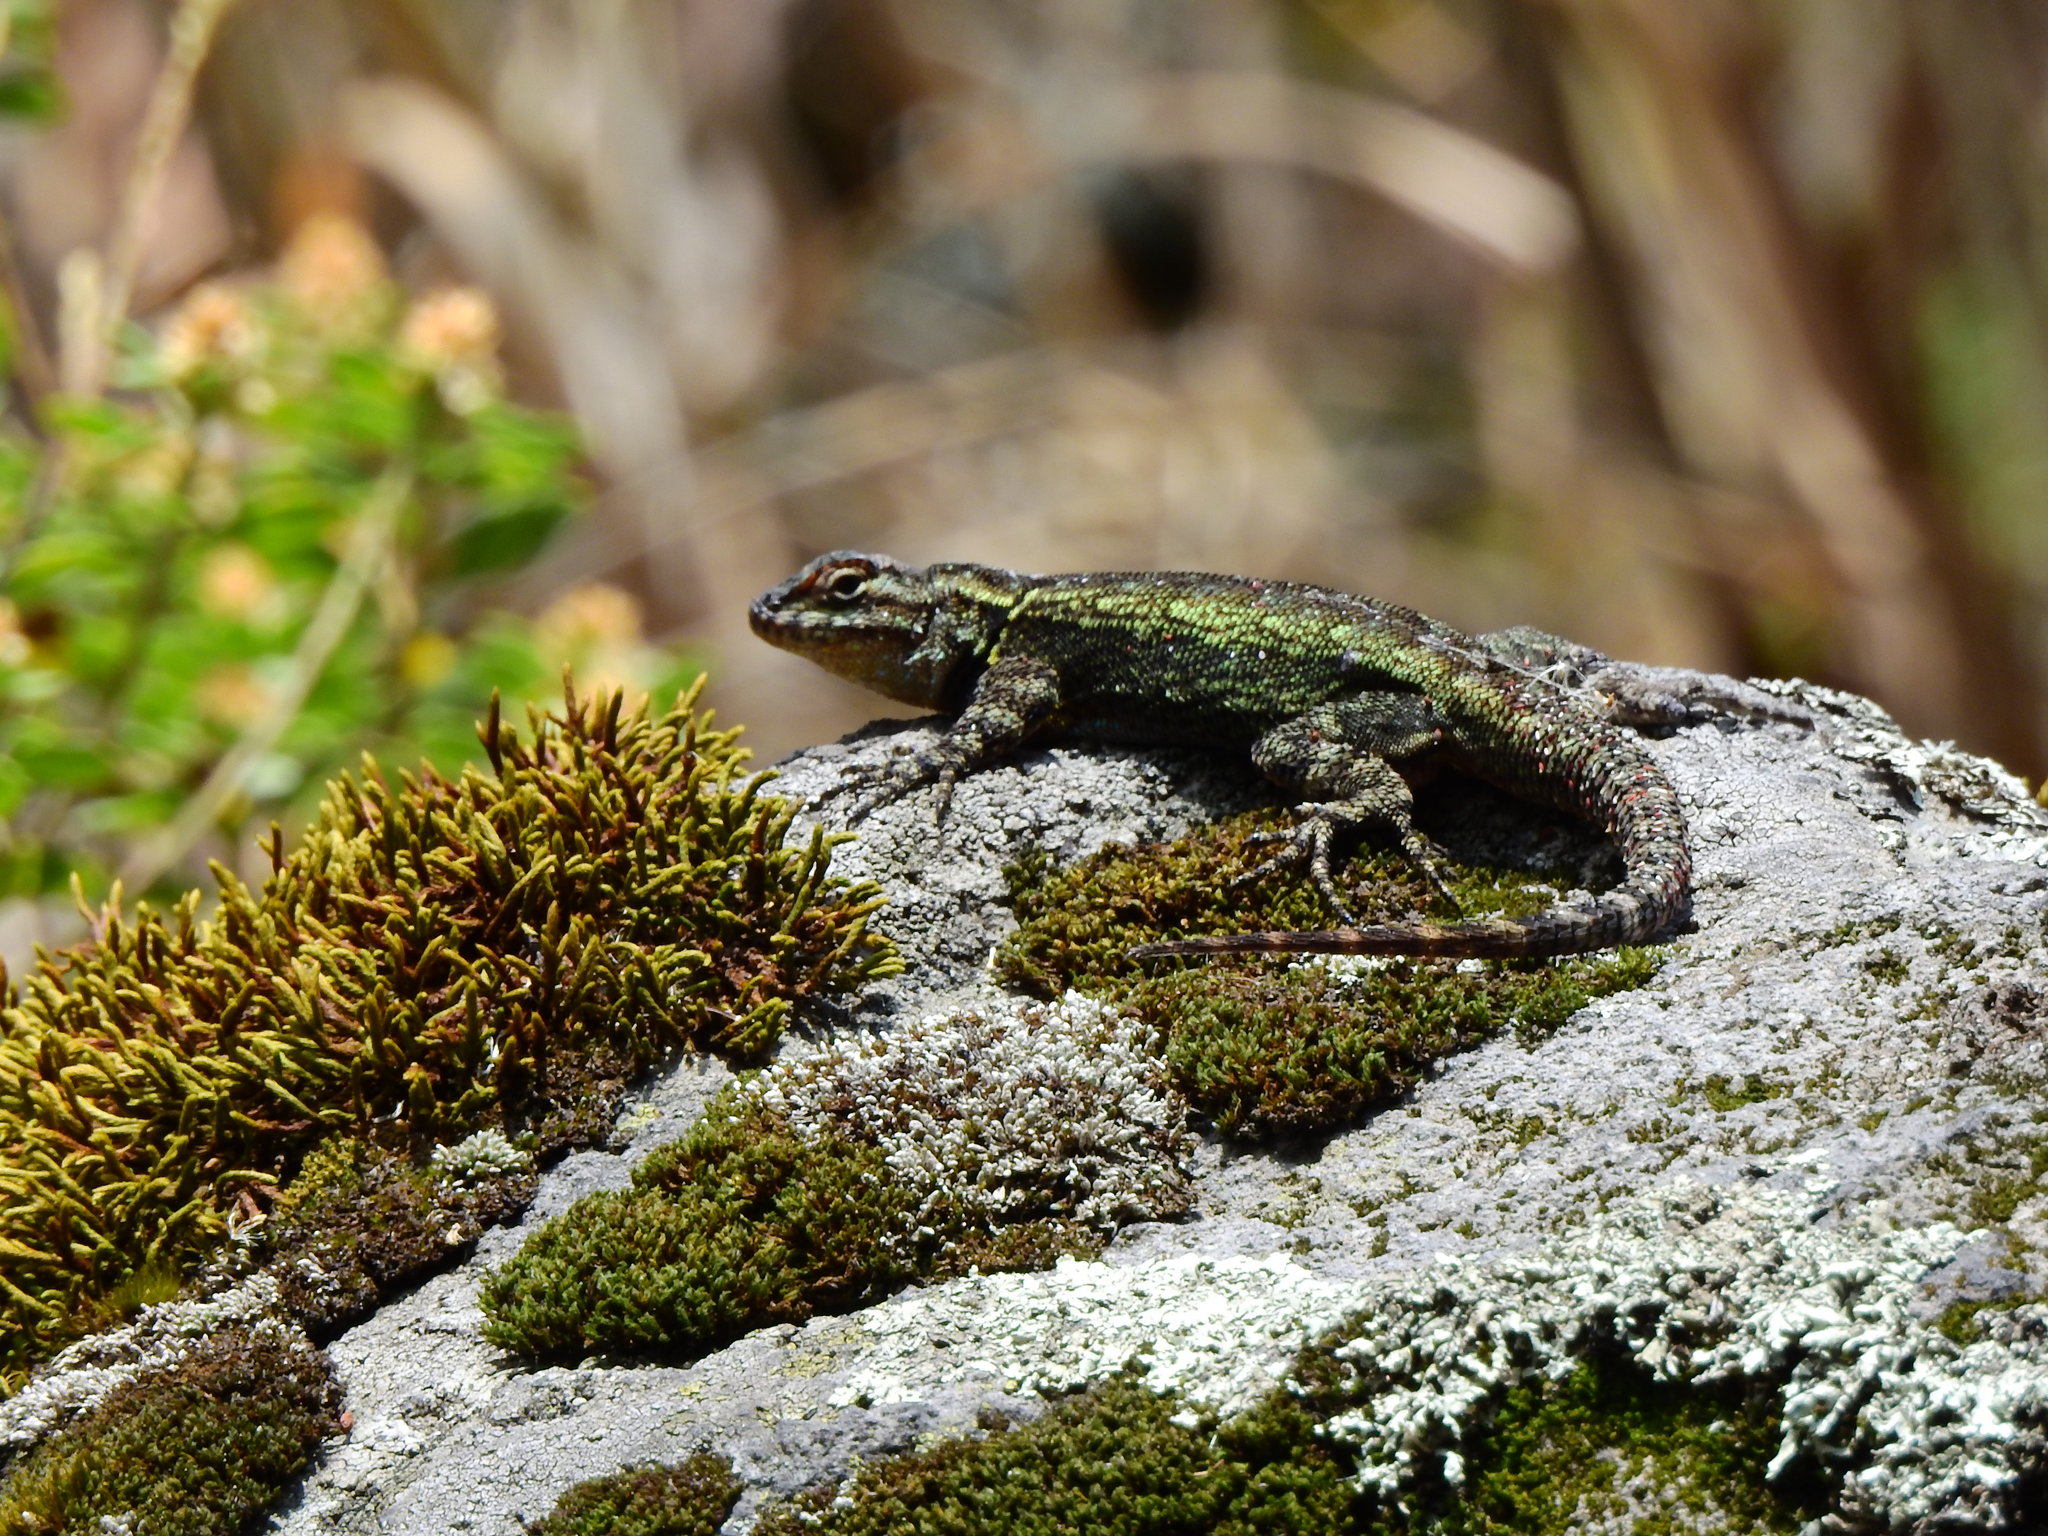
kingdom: Animalia
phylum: Chordata
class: Squamata
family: Phrynosomatidae
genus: Sceloporus
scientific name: Sceloporus anahuacus
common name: Anahuacan bunchgrass lizard
